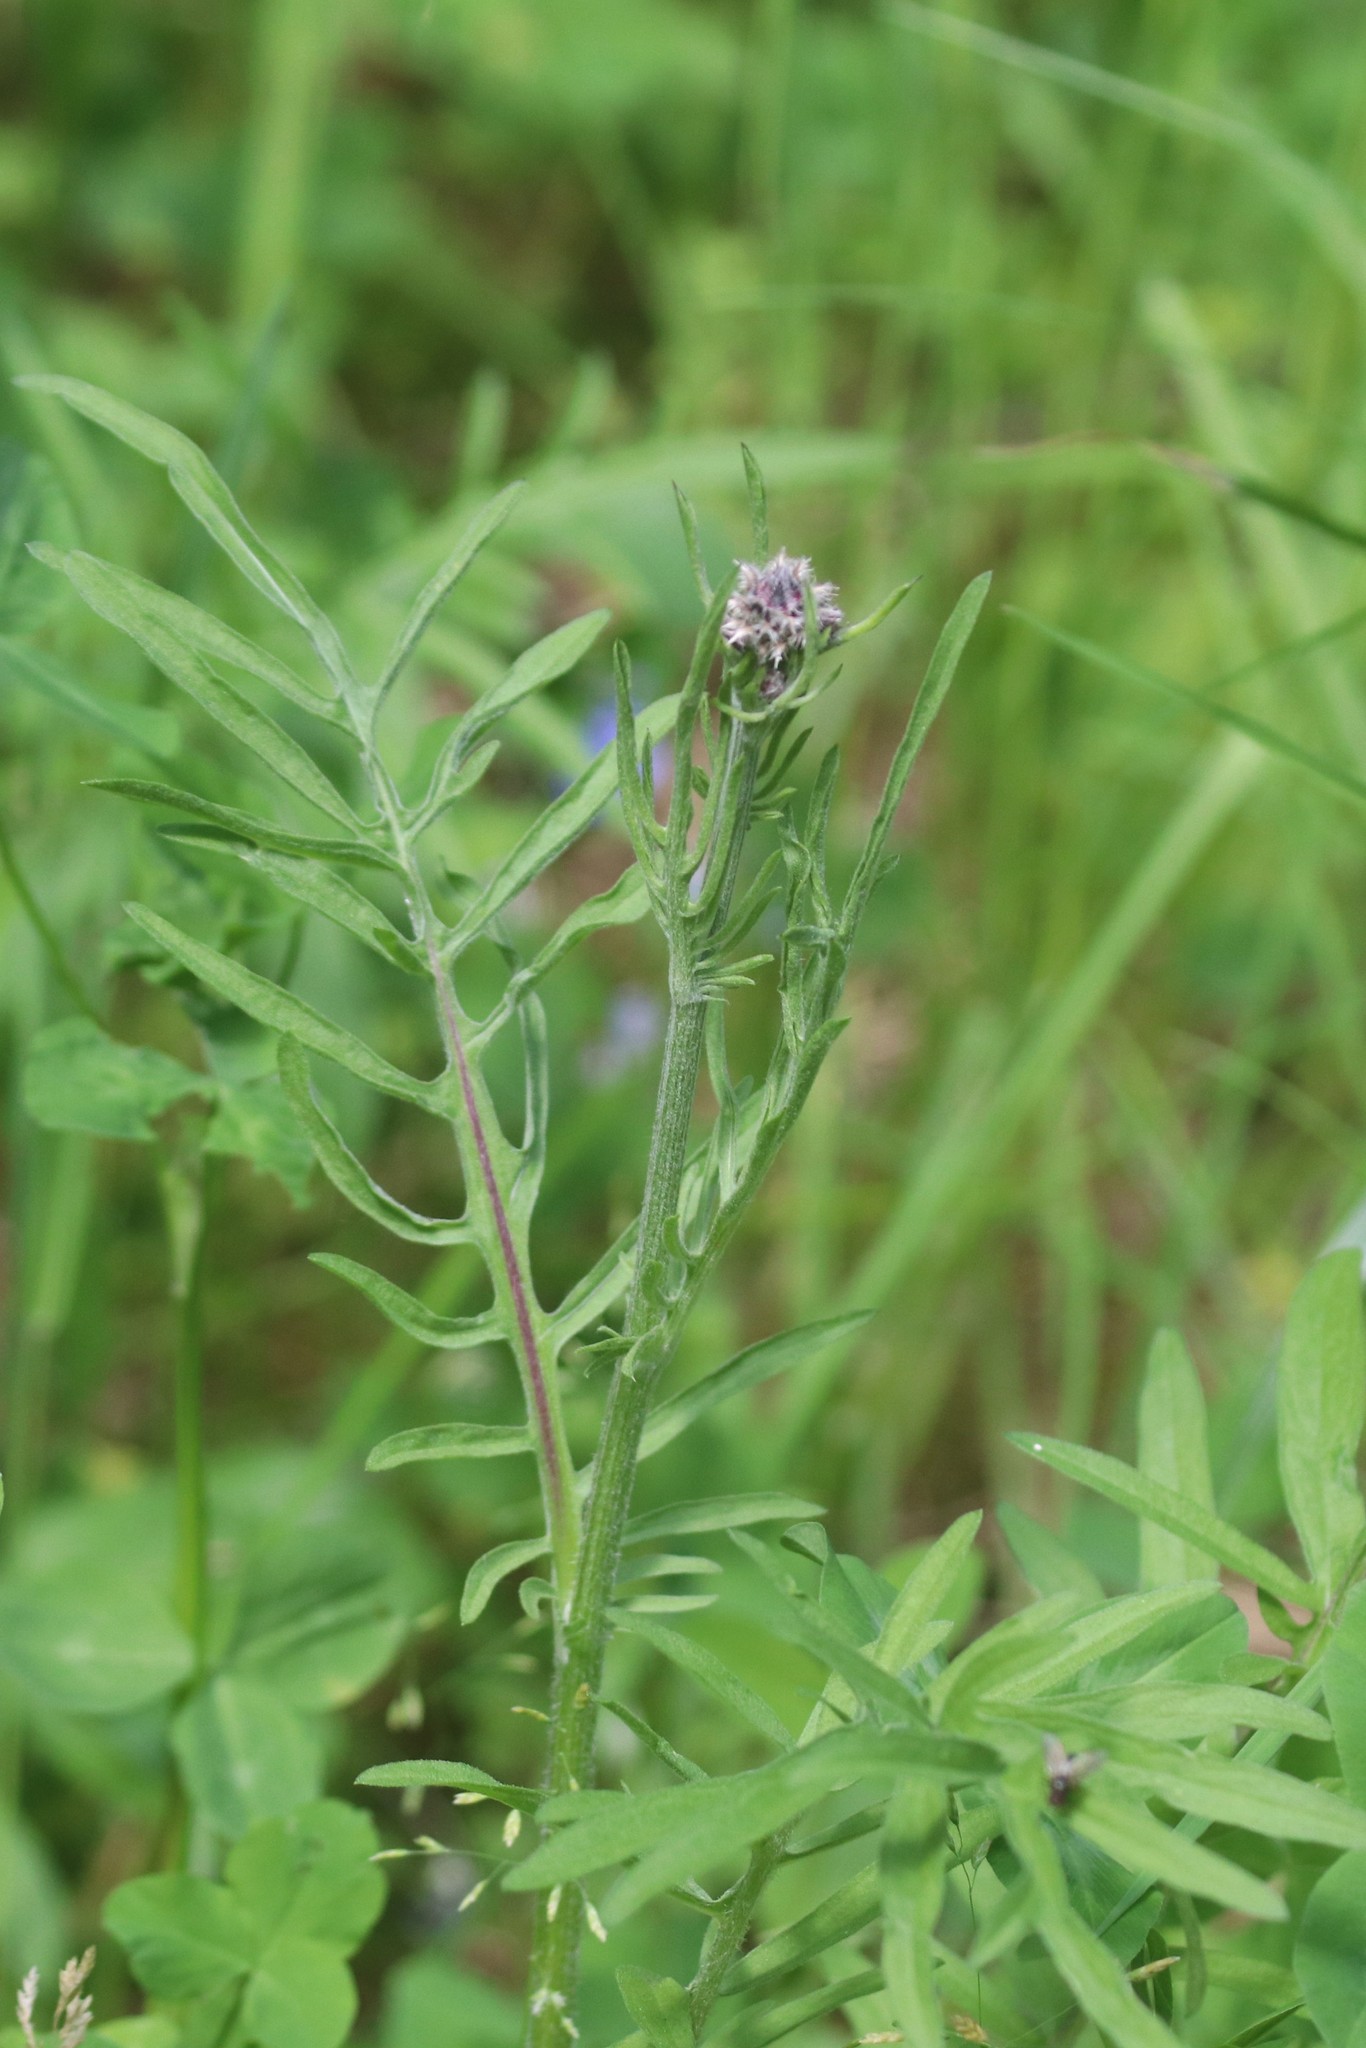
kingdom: Plantae
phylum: Tracheophyta
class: Magnoliopsida
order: Asterales
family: Asteraceae
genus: Centaurea
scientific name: Centaurea scabiosa
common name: Greater knapweed
